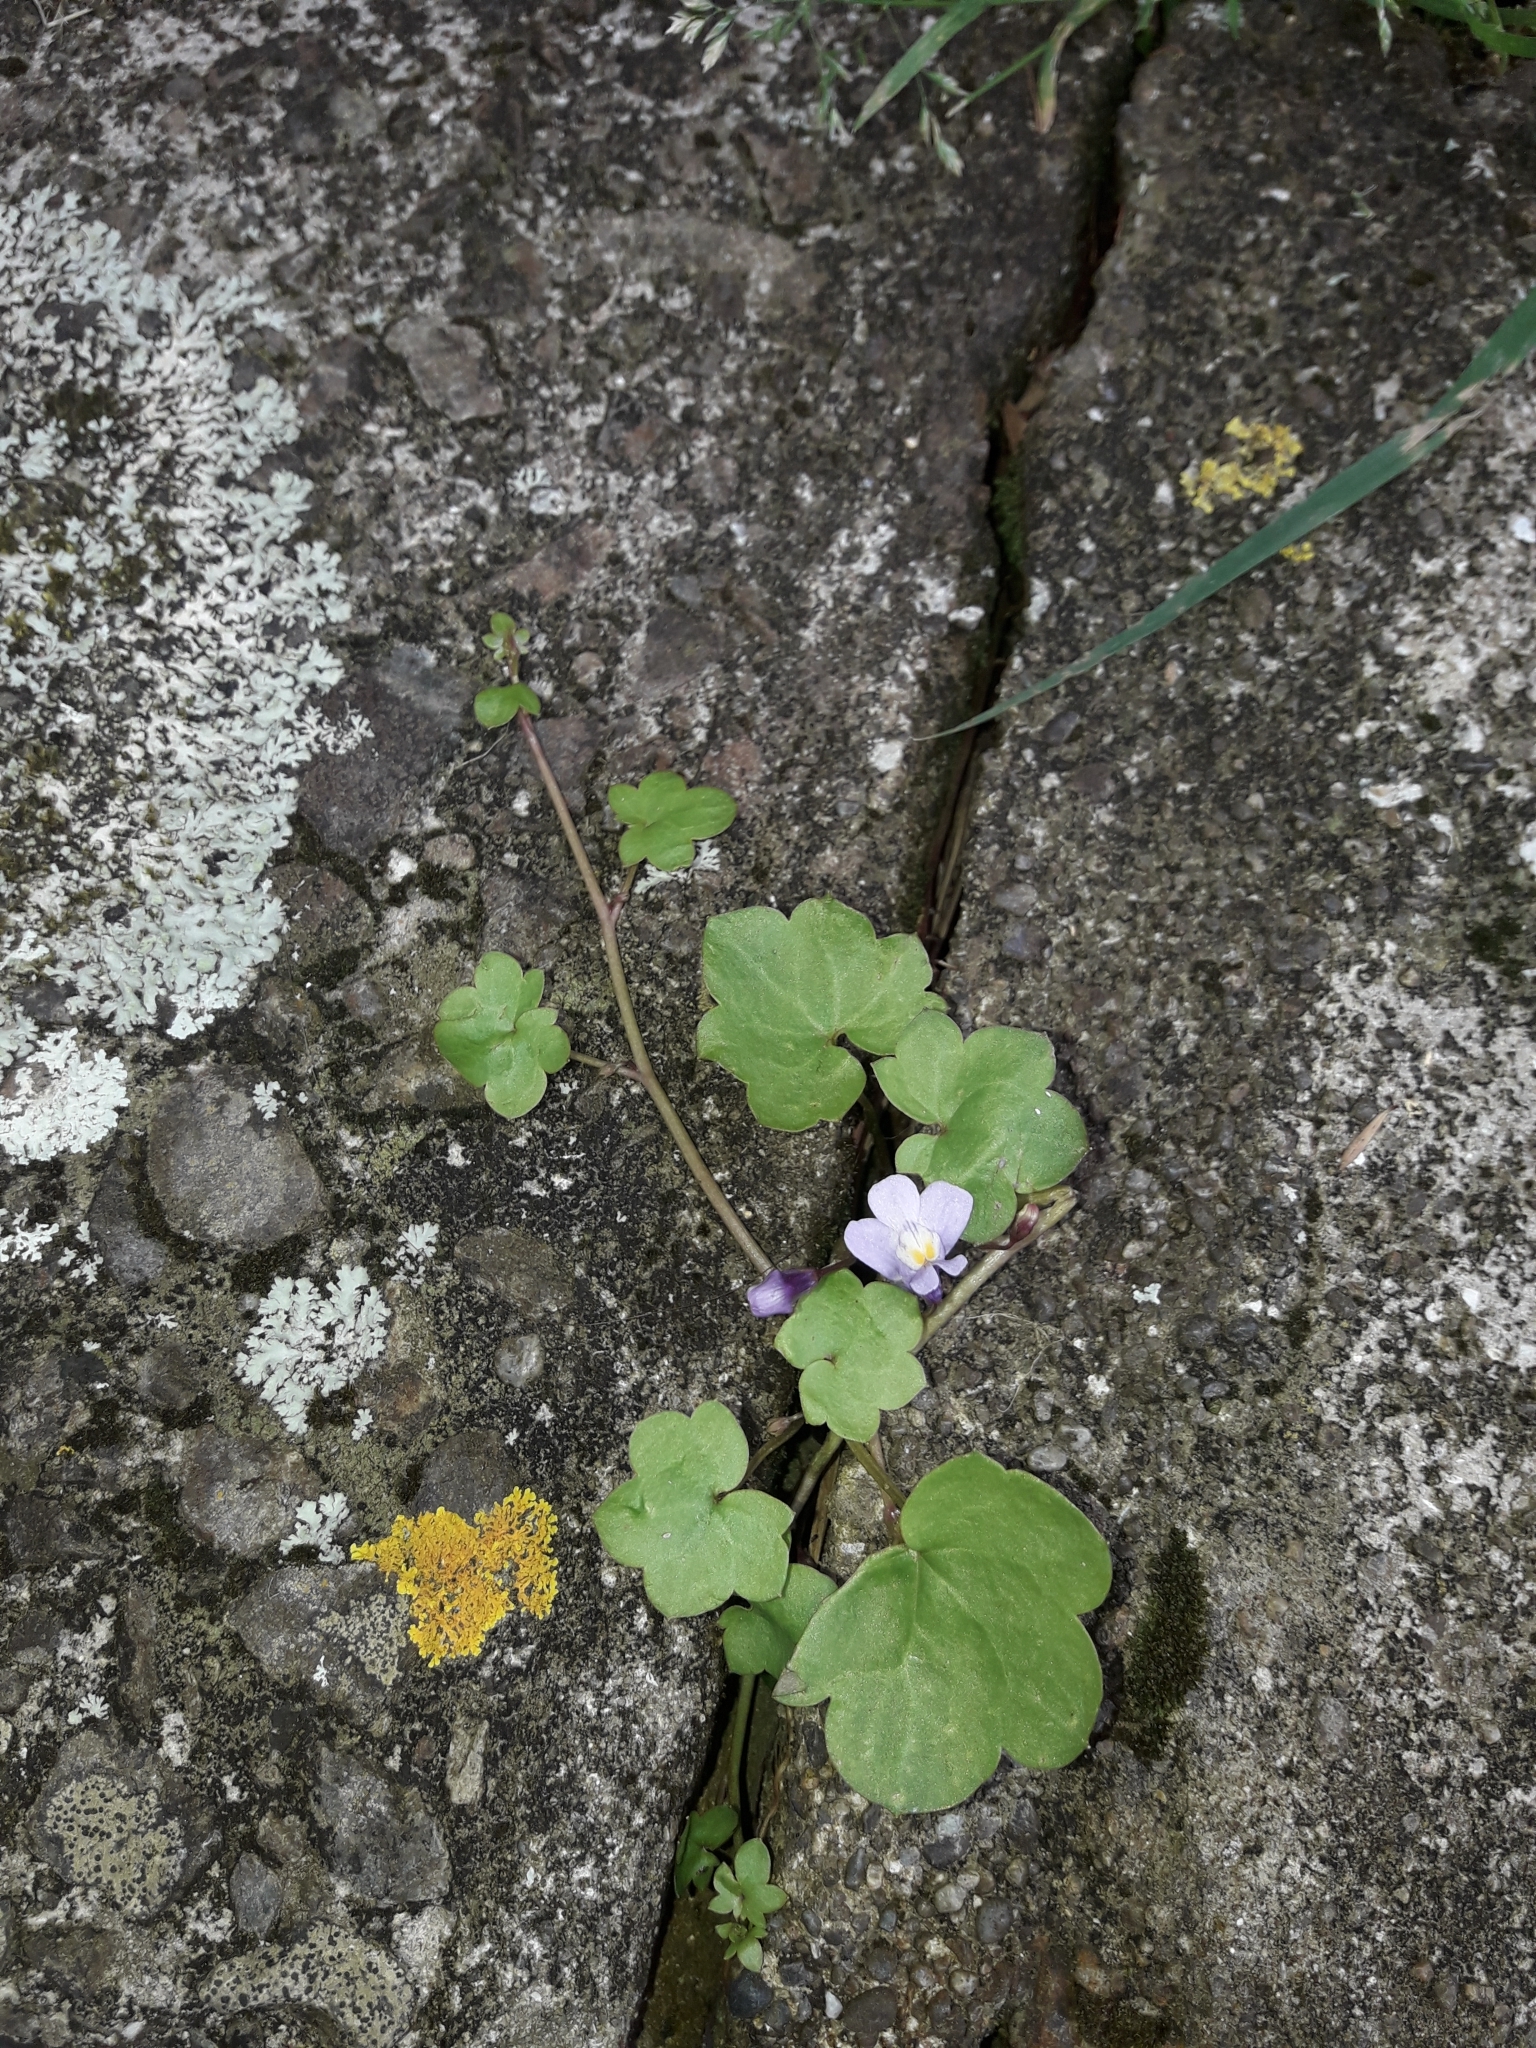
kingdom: Plantae
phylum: Tracheophyta
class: Magnoliopsida
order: Lamiales
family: Plantaginaceae
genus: Cymbalaria
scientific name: Cymbalaria muralis
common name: Ivy-leaved toadflax
